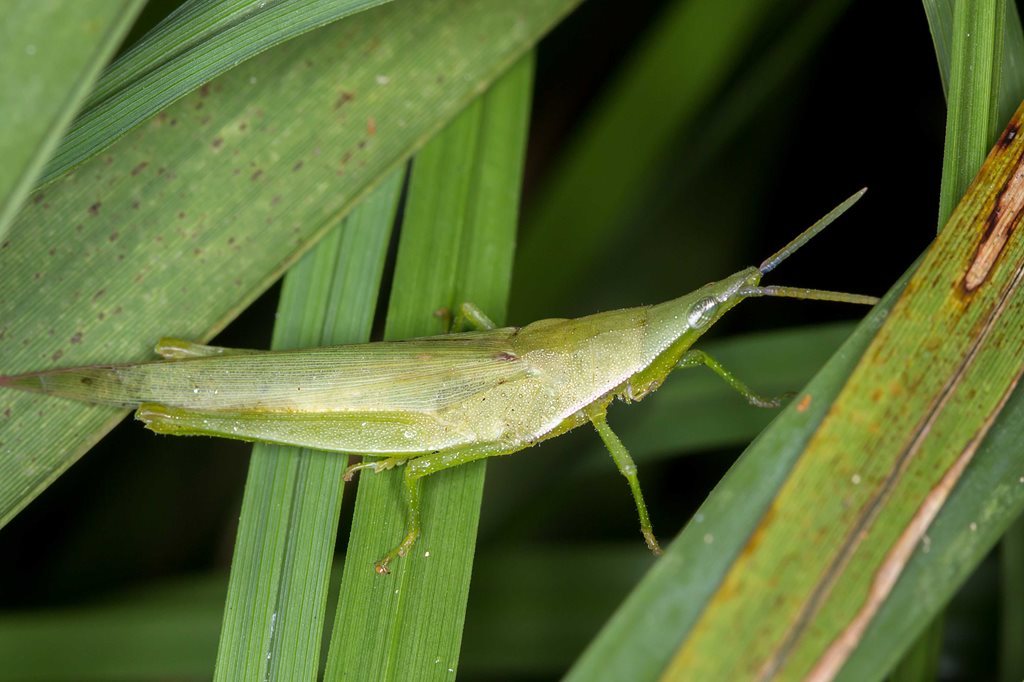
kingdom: Animalia
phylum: Arthropoda
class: Insecta
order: Orthoptera
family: Pyrgomorphidae
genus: Atractomorpha
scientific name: Atractomorpha similis
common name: Northern grass pyrgomorph
